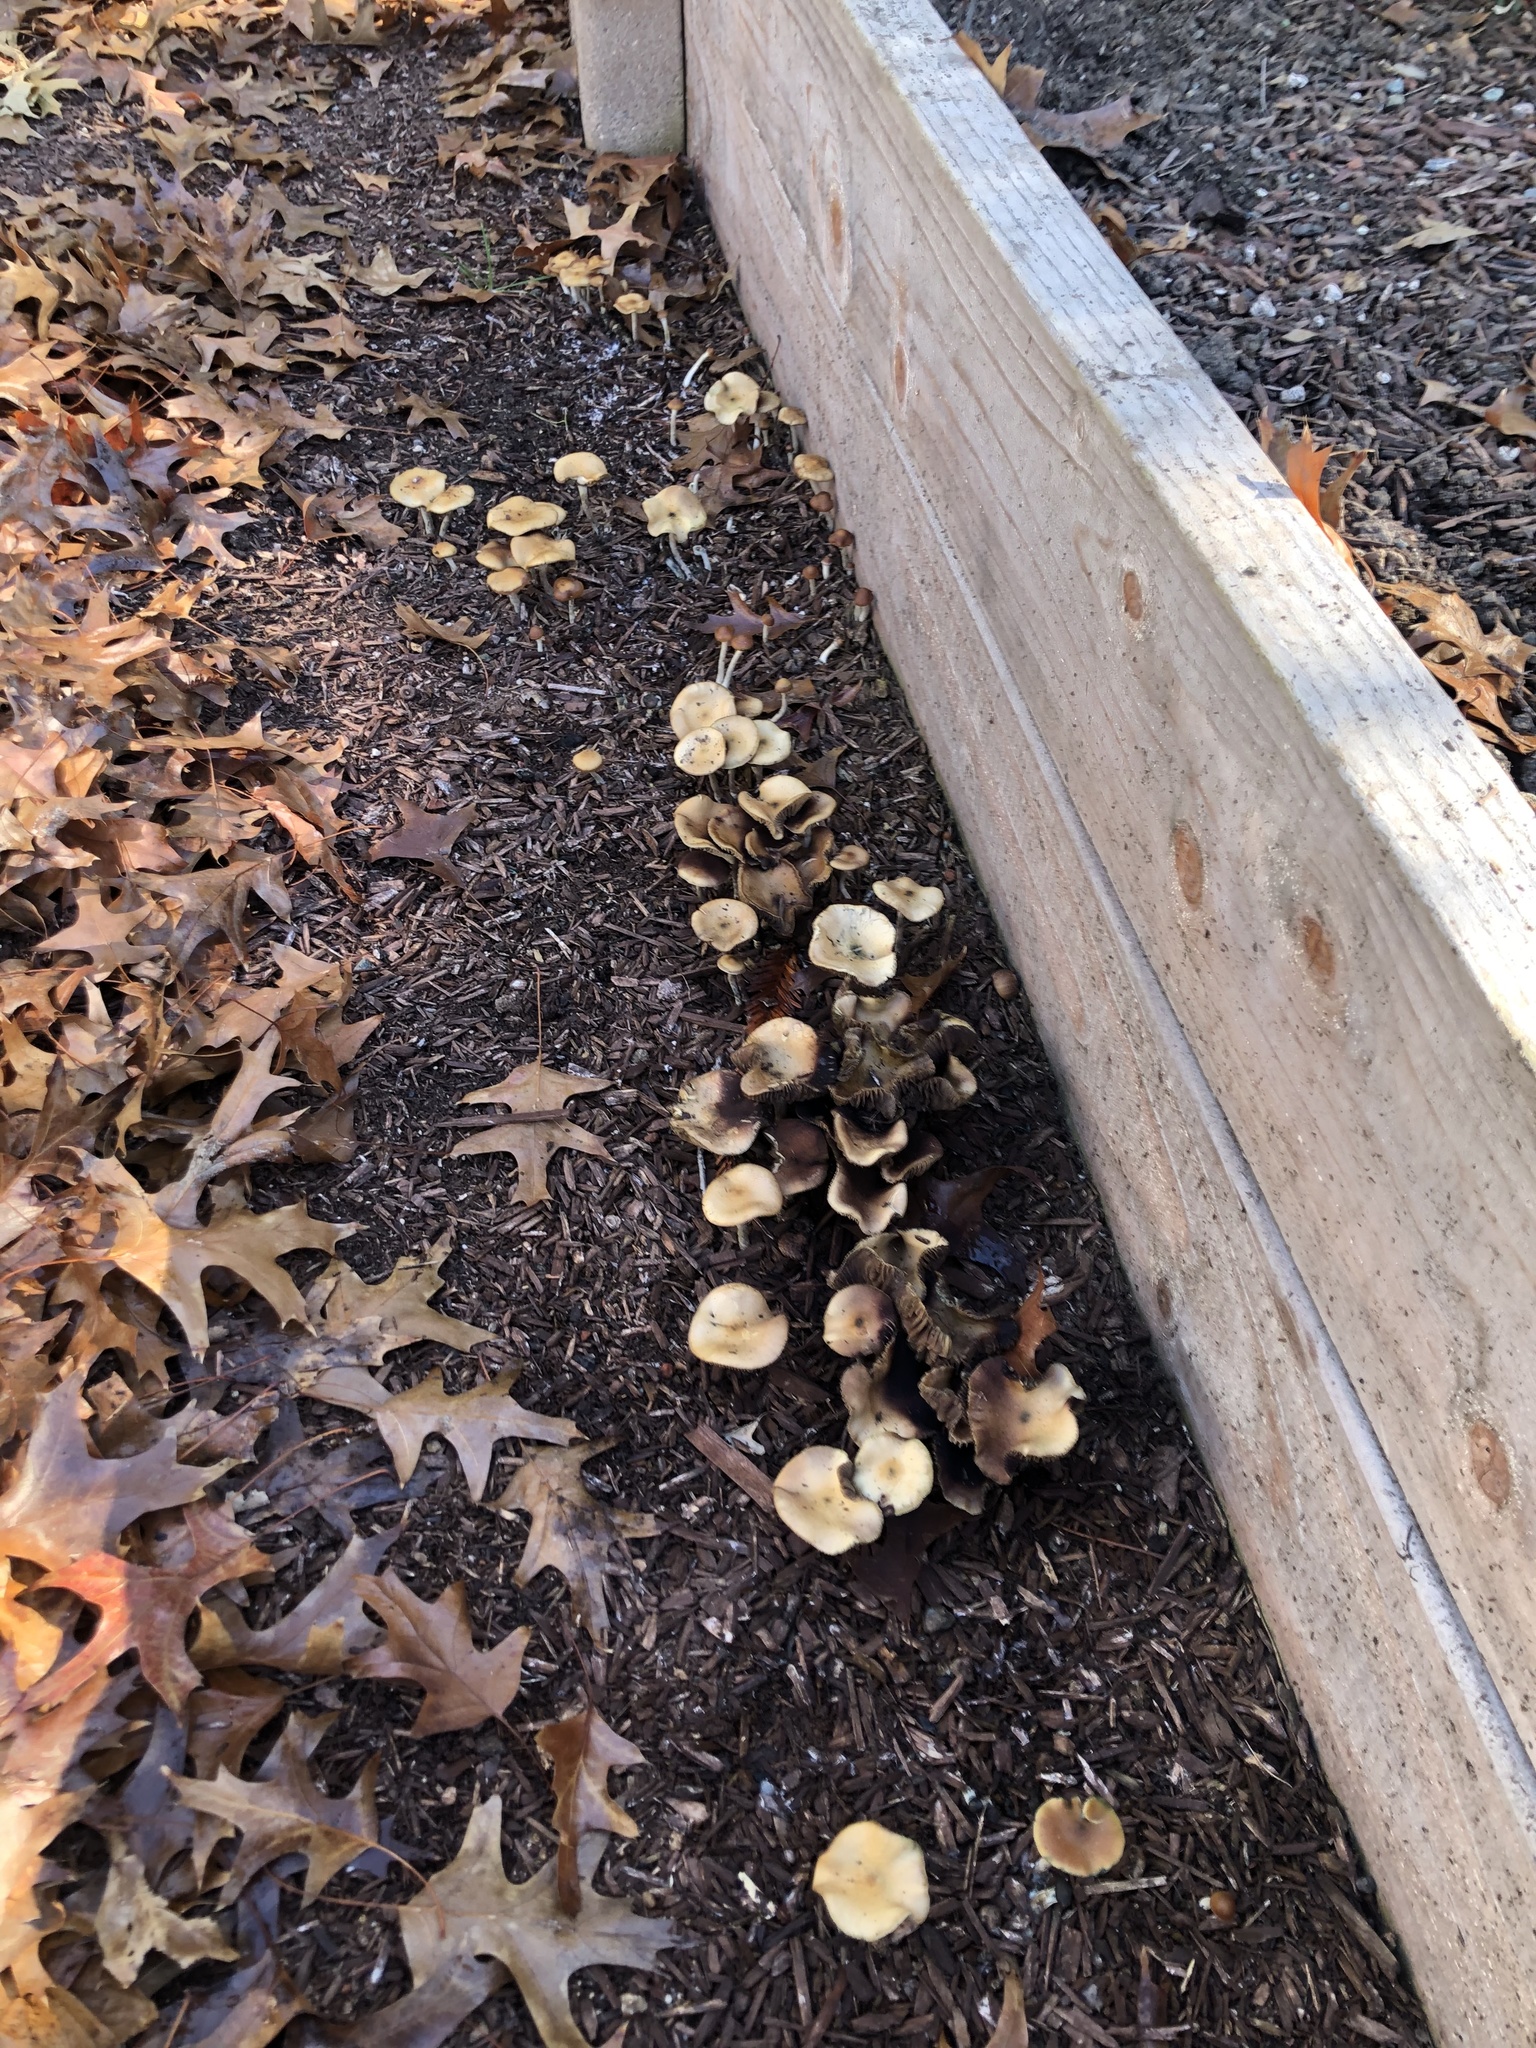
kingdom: Fungi
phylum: Basidiomycota
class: Agaricomycetes
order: Agaricales
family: Hymenogastraceae
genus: Psilocybe
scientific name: Psilocybe cyanescens
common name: Blueleg brownie
